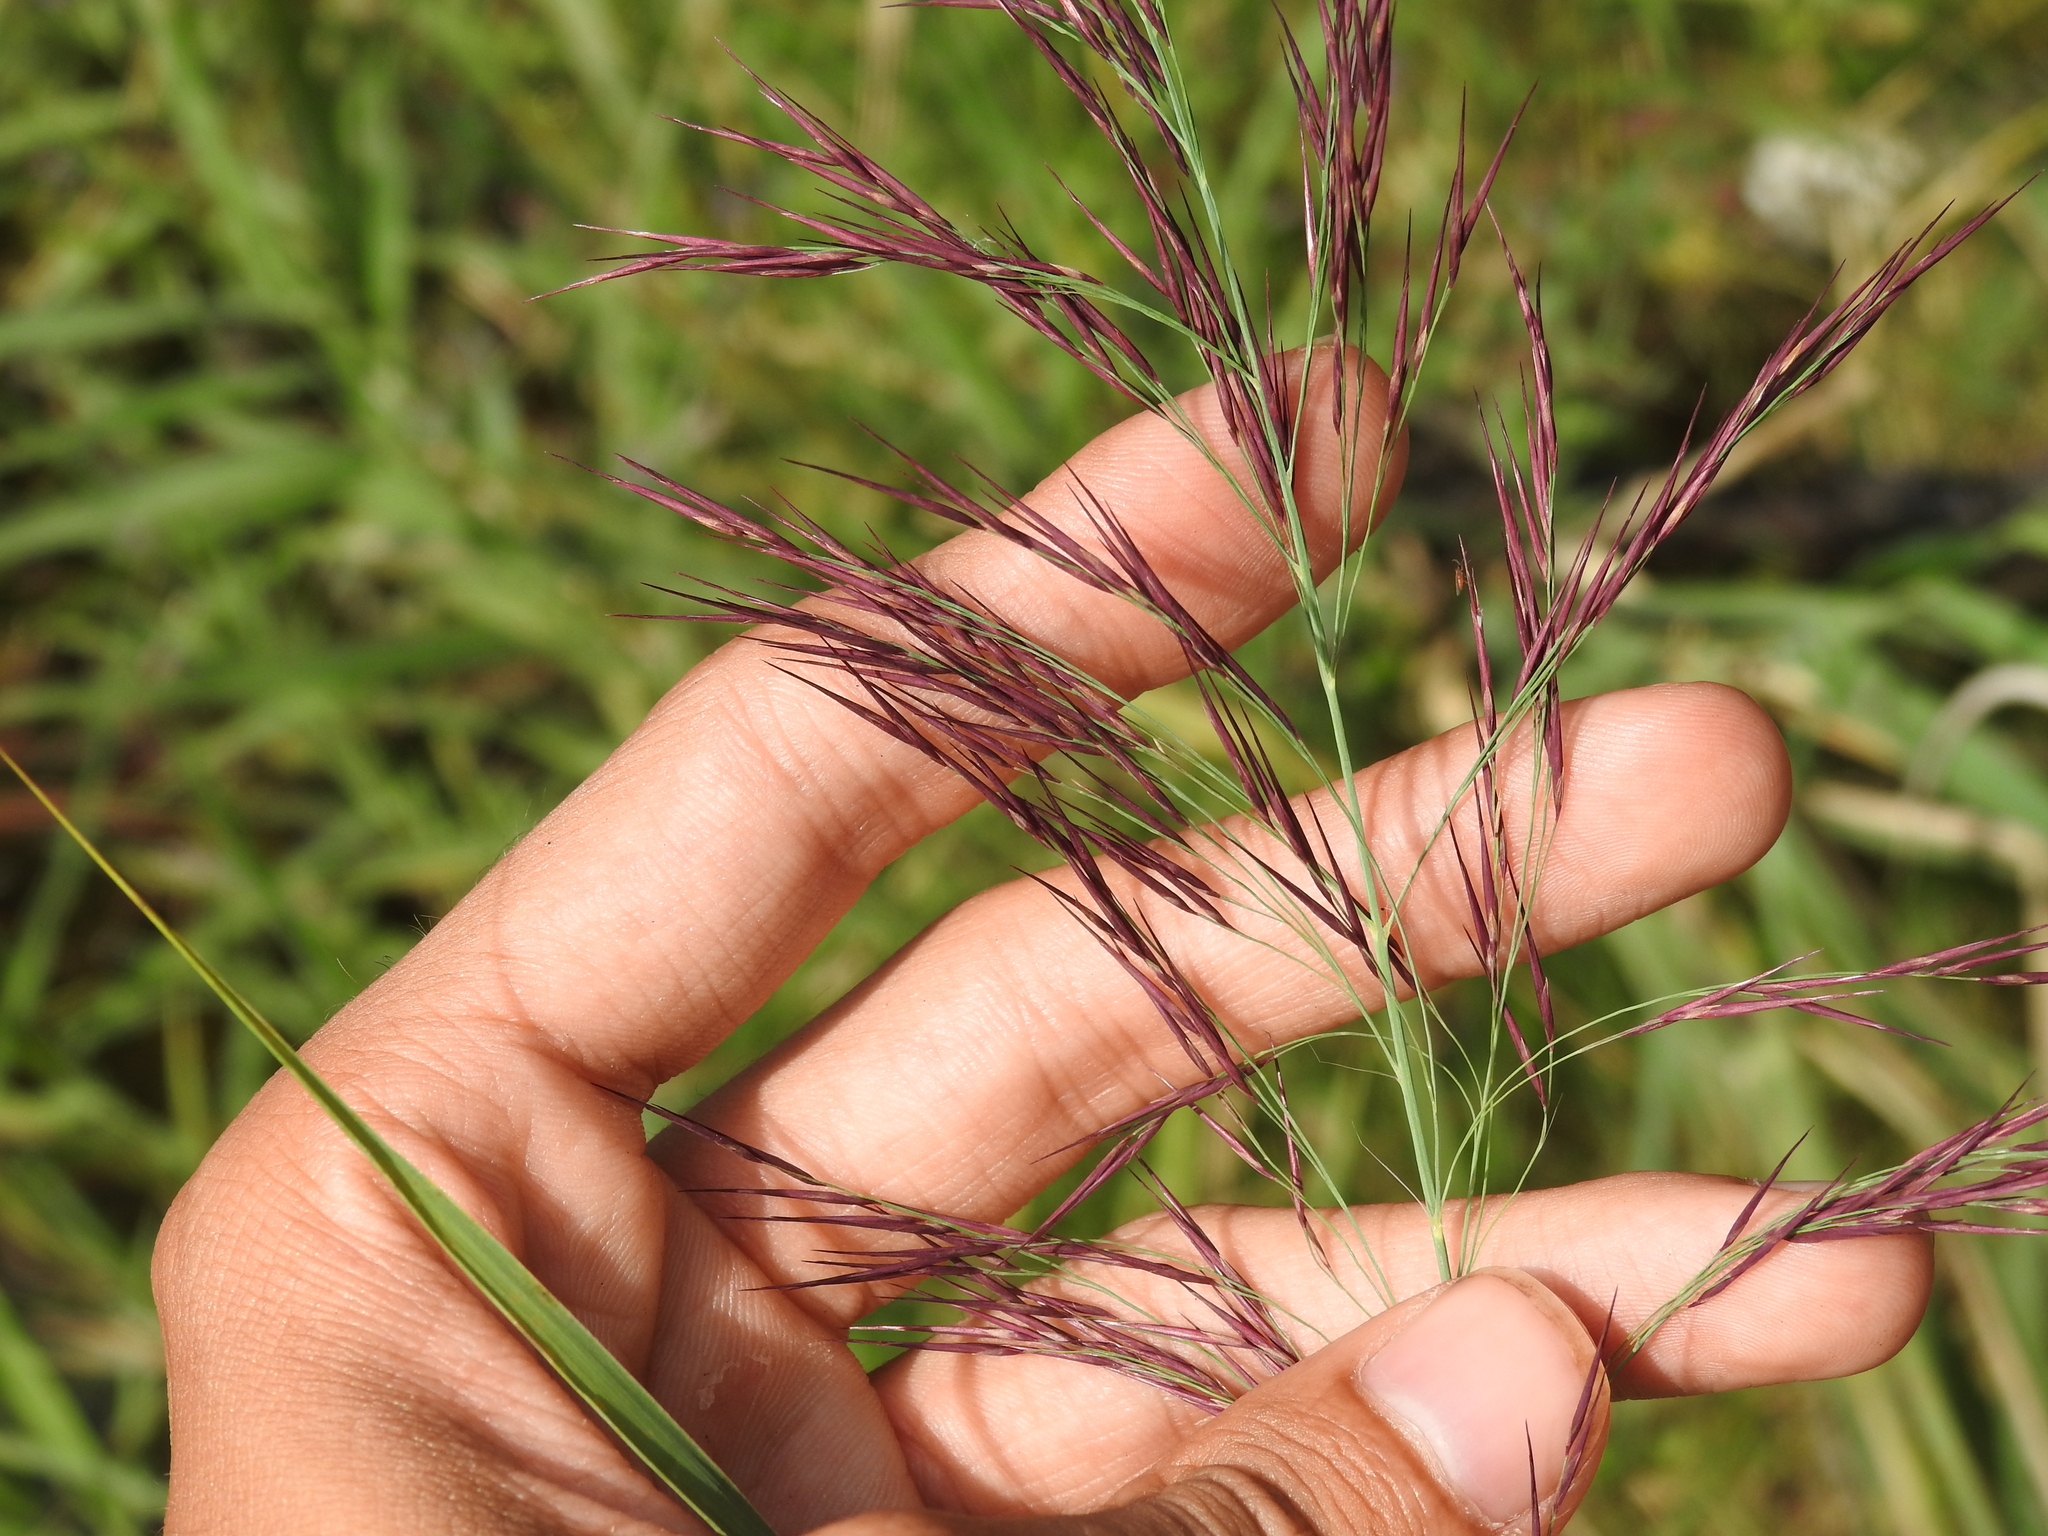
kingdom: Plantae
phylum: Tracheophyta
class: Liliopsida
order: Poales
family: Poaceae
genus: Phragmites
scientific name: Phragmites australis
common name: Common reed
